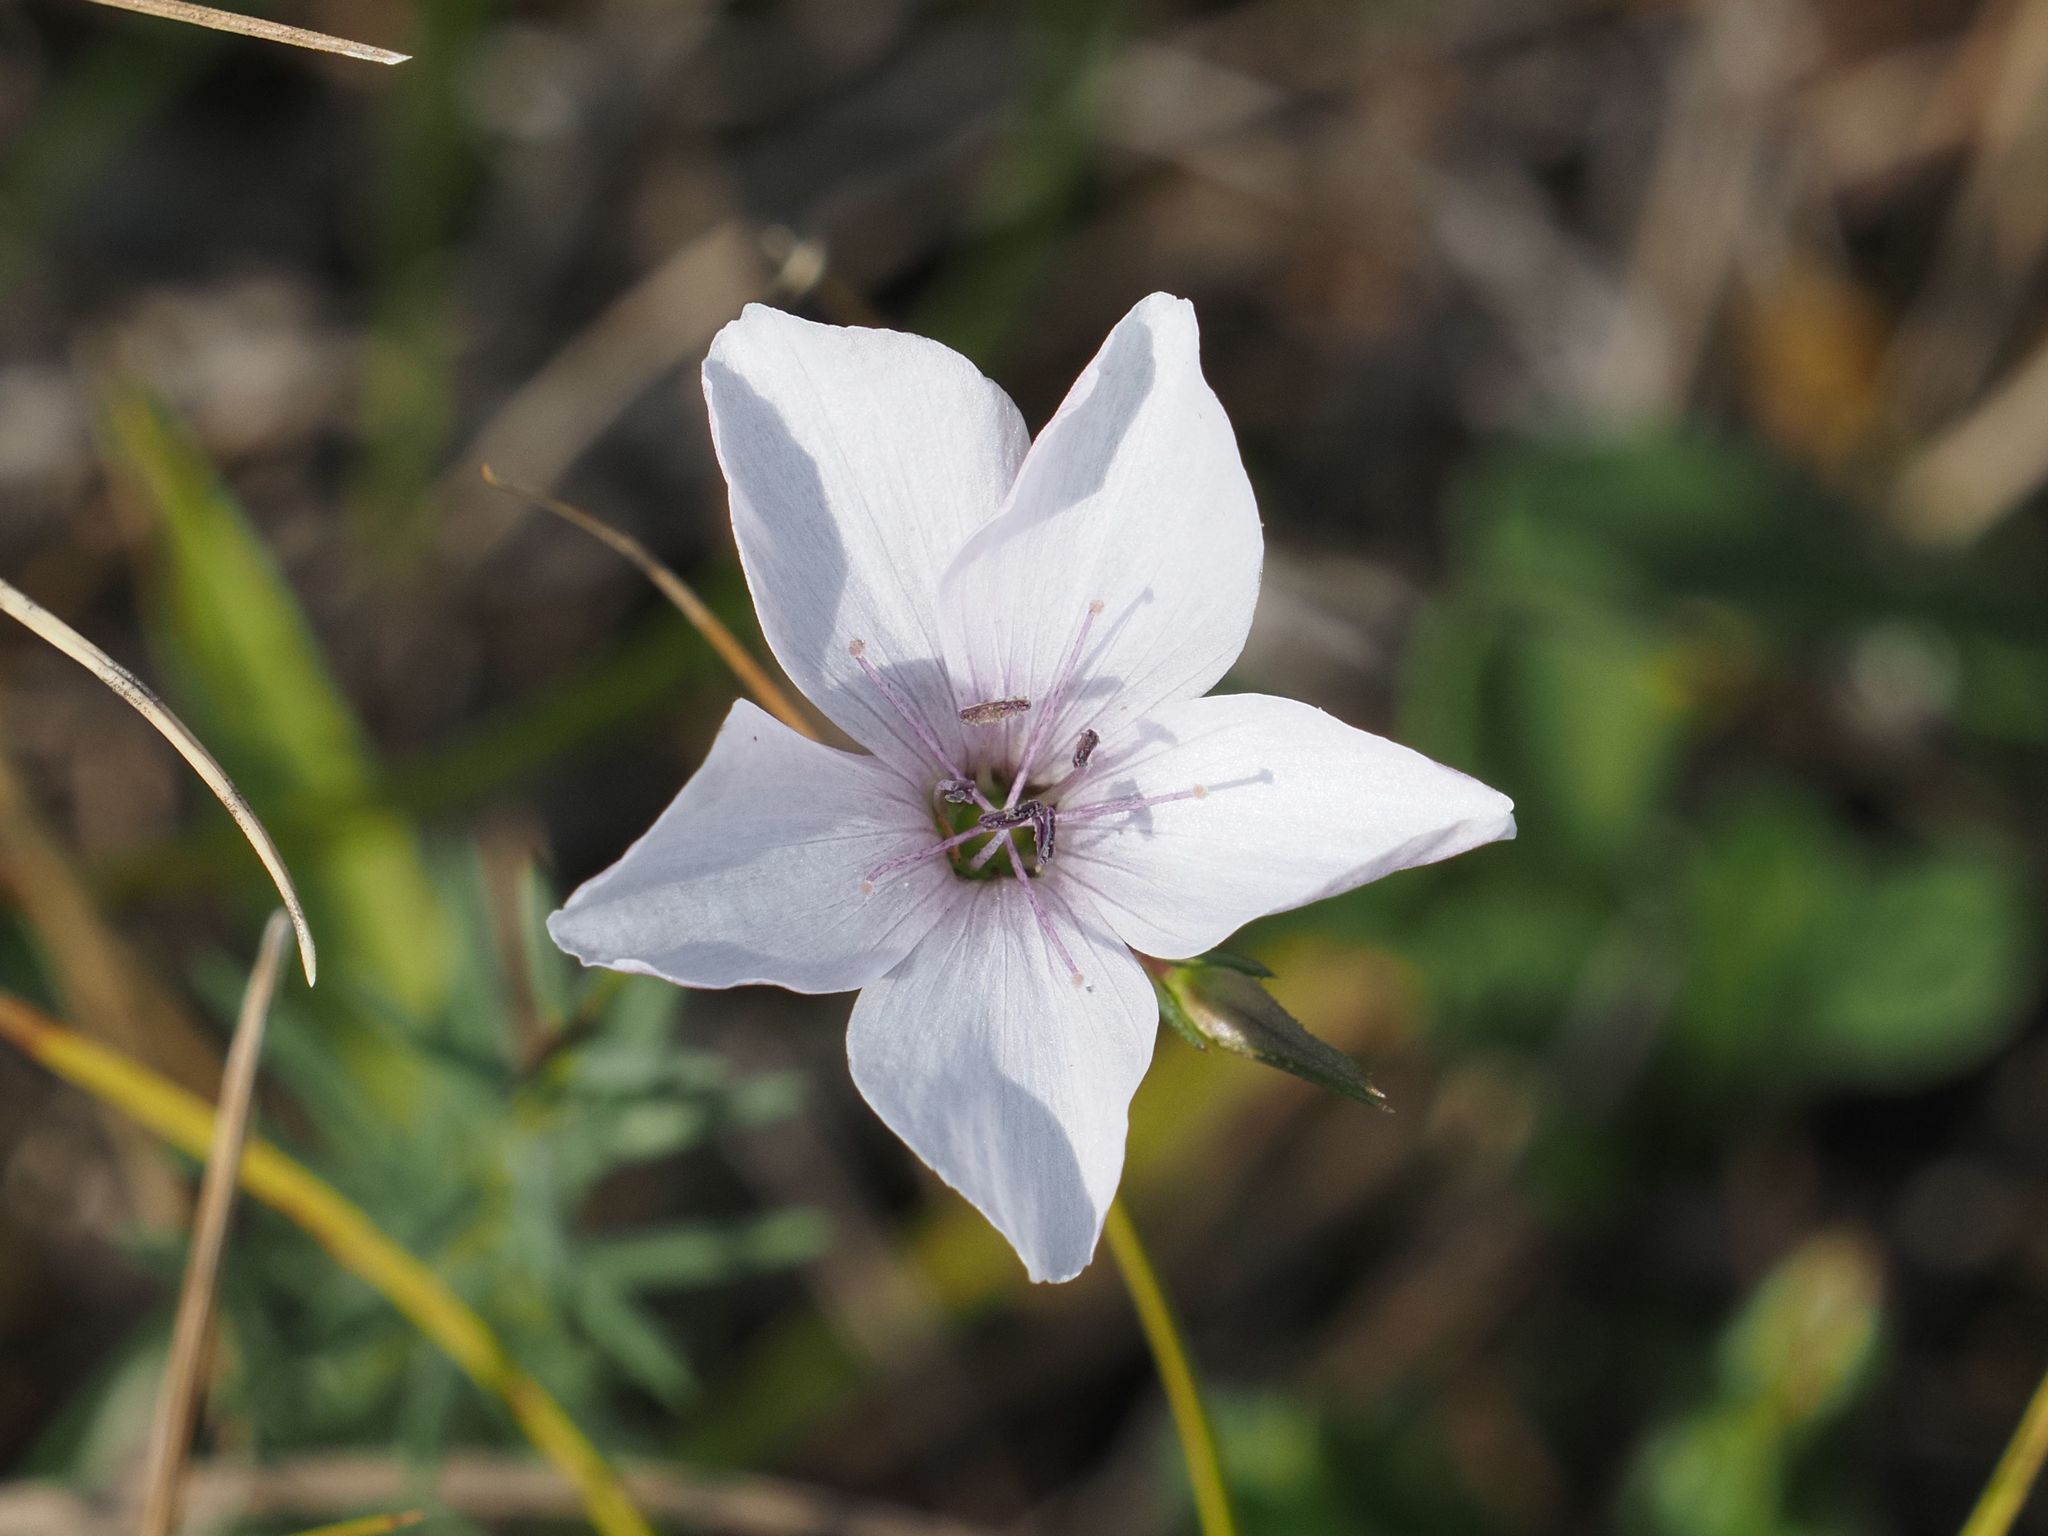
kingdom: Plantae
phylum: Tracheophyta
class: Magnoliopsida
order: Malpighiales
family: Linaceae
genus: Linum
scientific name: Linum tenuifolium
